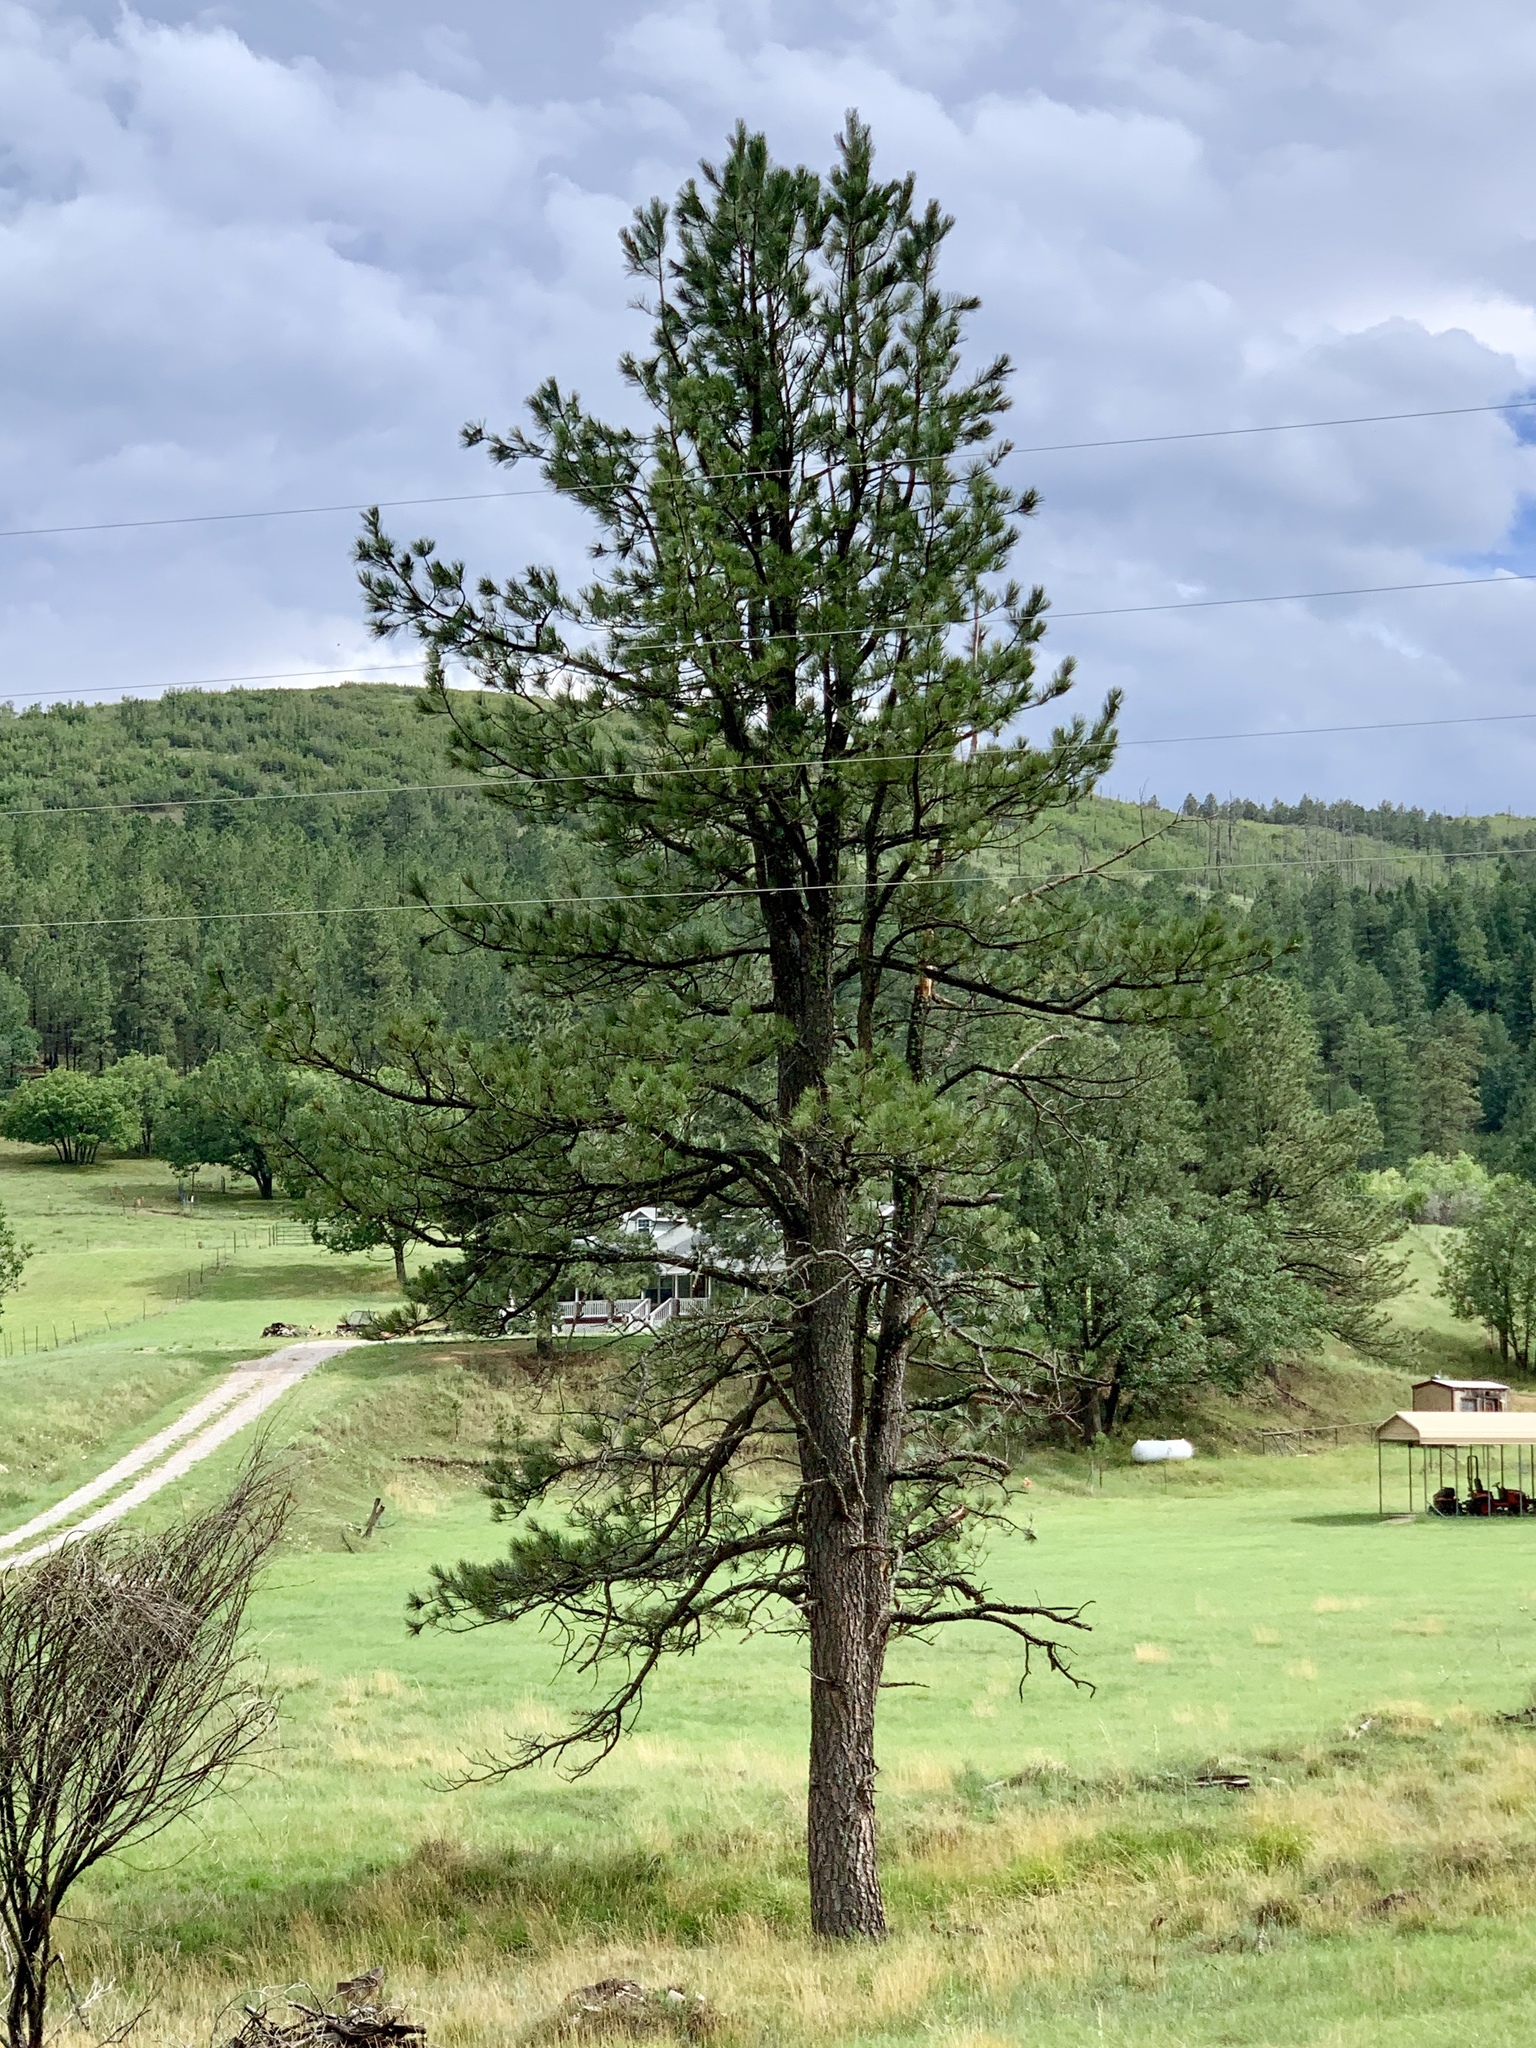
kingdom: Plantae
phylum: Tracheophyta
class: Pinopsida
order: Pinales
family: Pinaceae
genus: Pinus
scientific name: Pinus ponderosa
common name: Western yellow-pine
